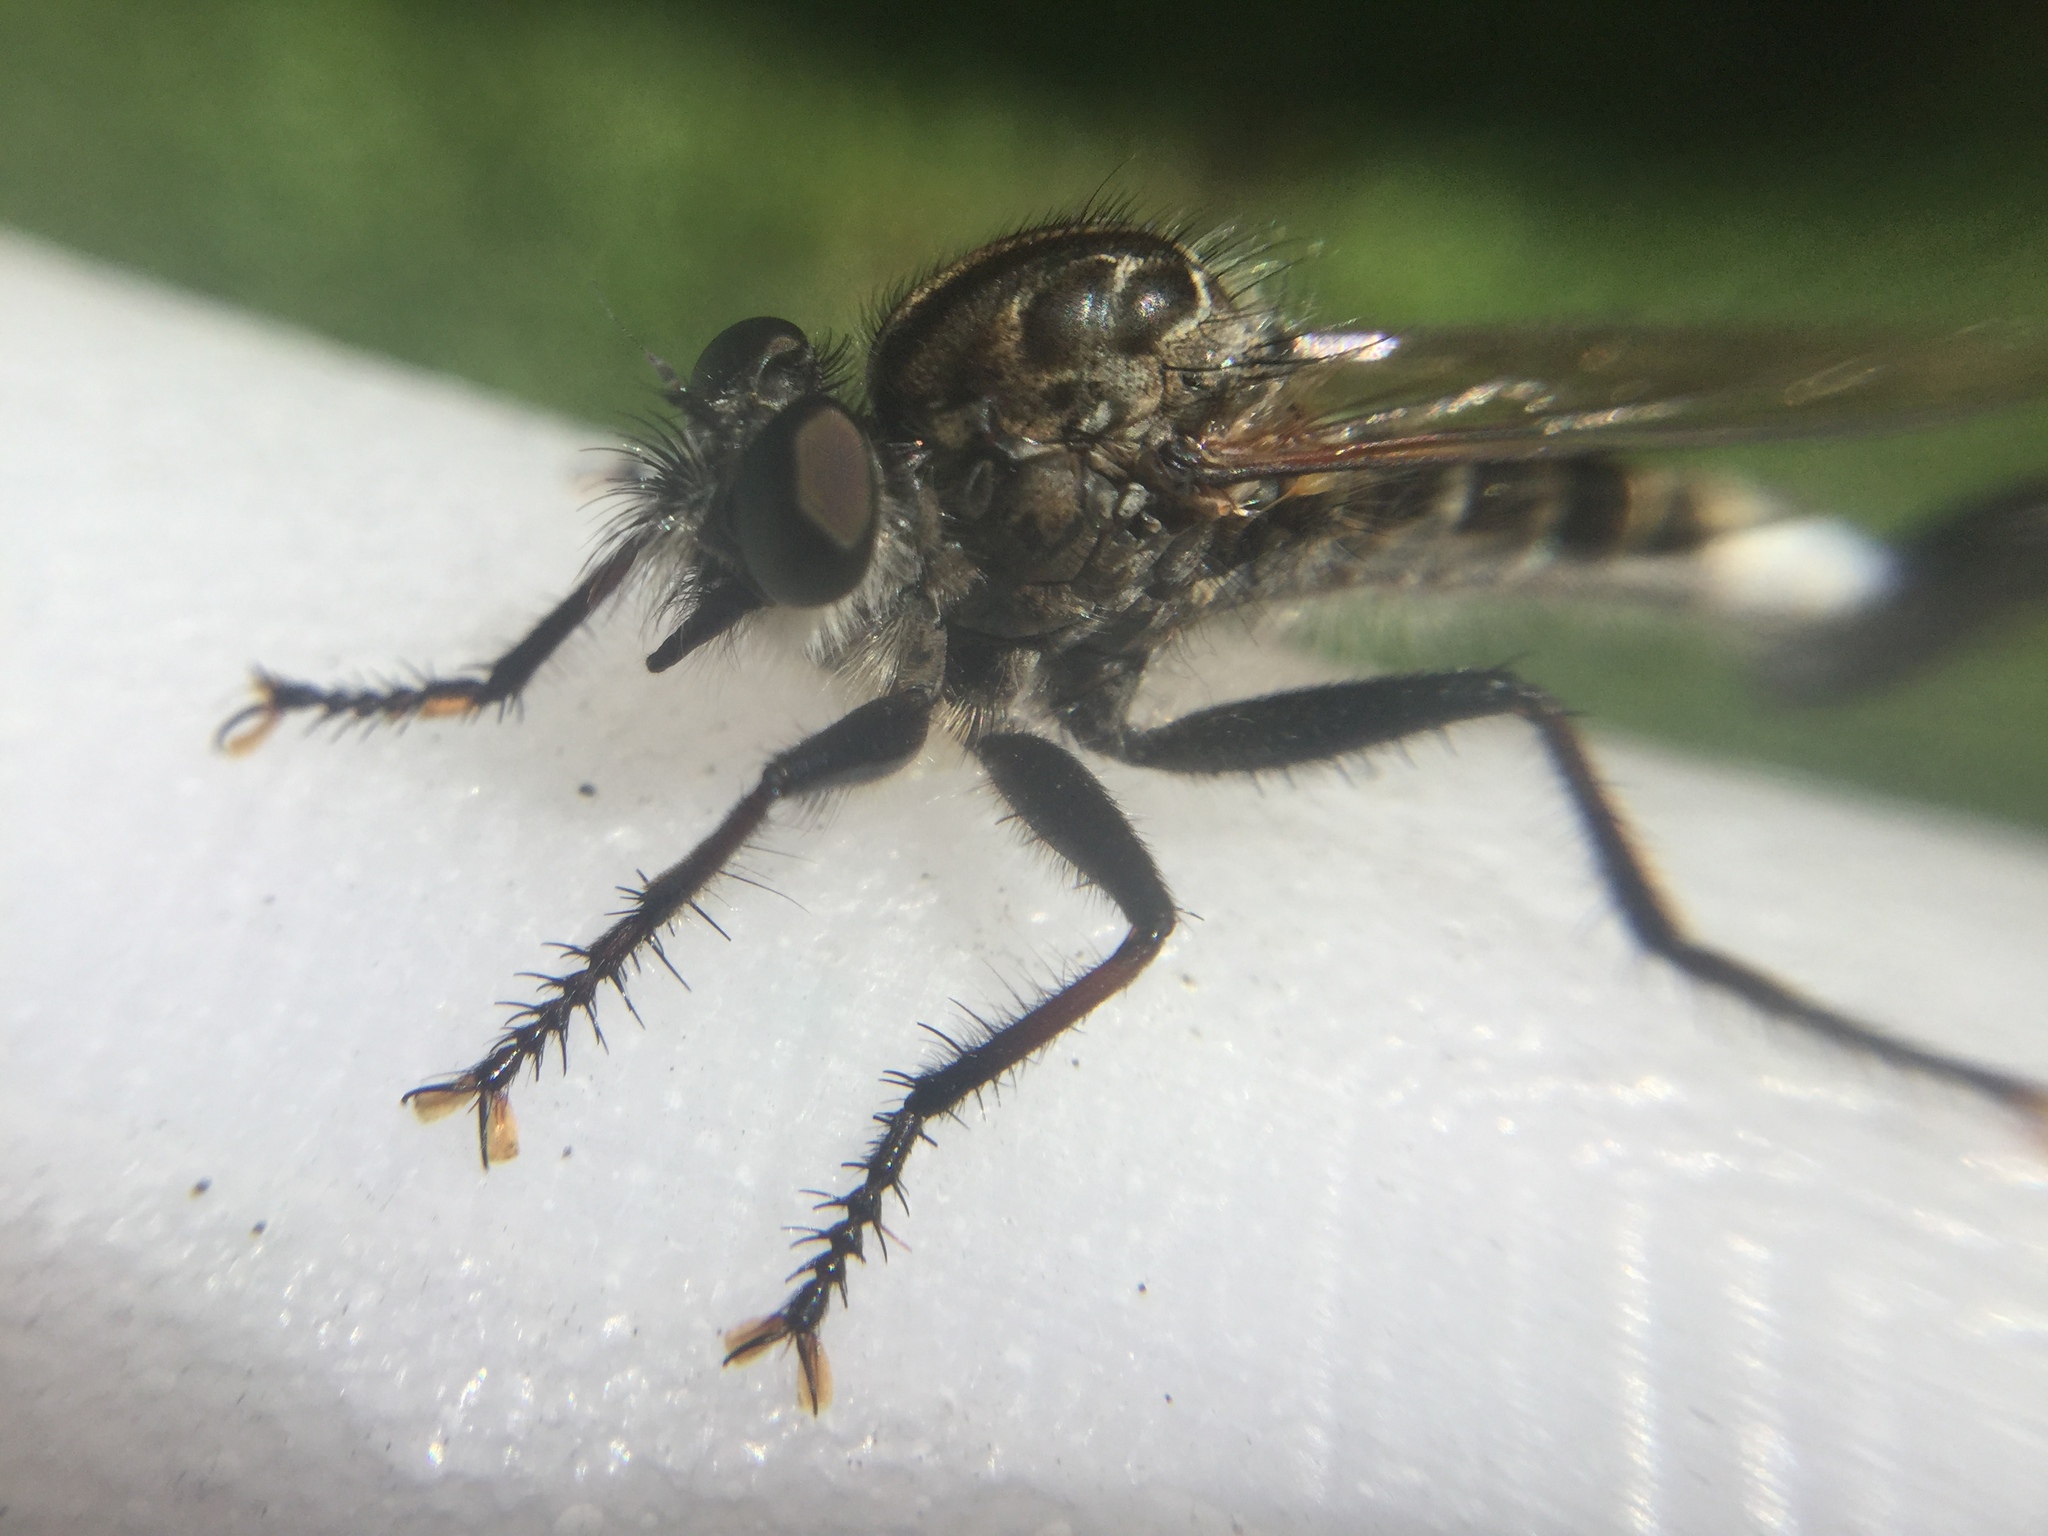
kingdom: Animalia
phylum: Arthropoda
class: Insecta
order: Diptera
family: Asilidae
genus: Efferia
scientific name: Efferia aestuans
